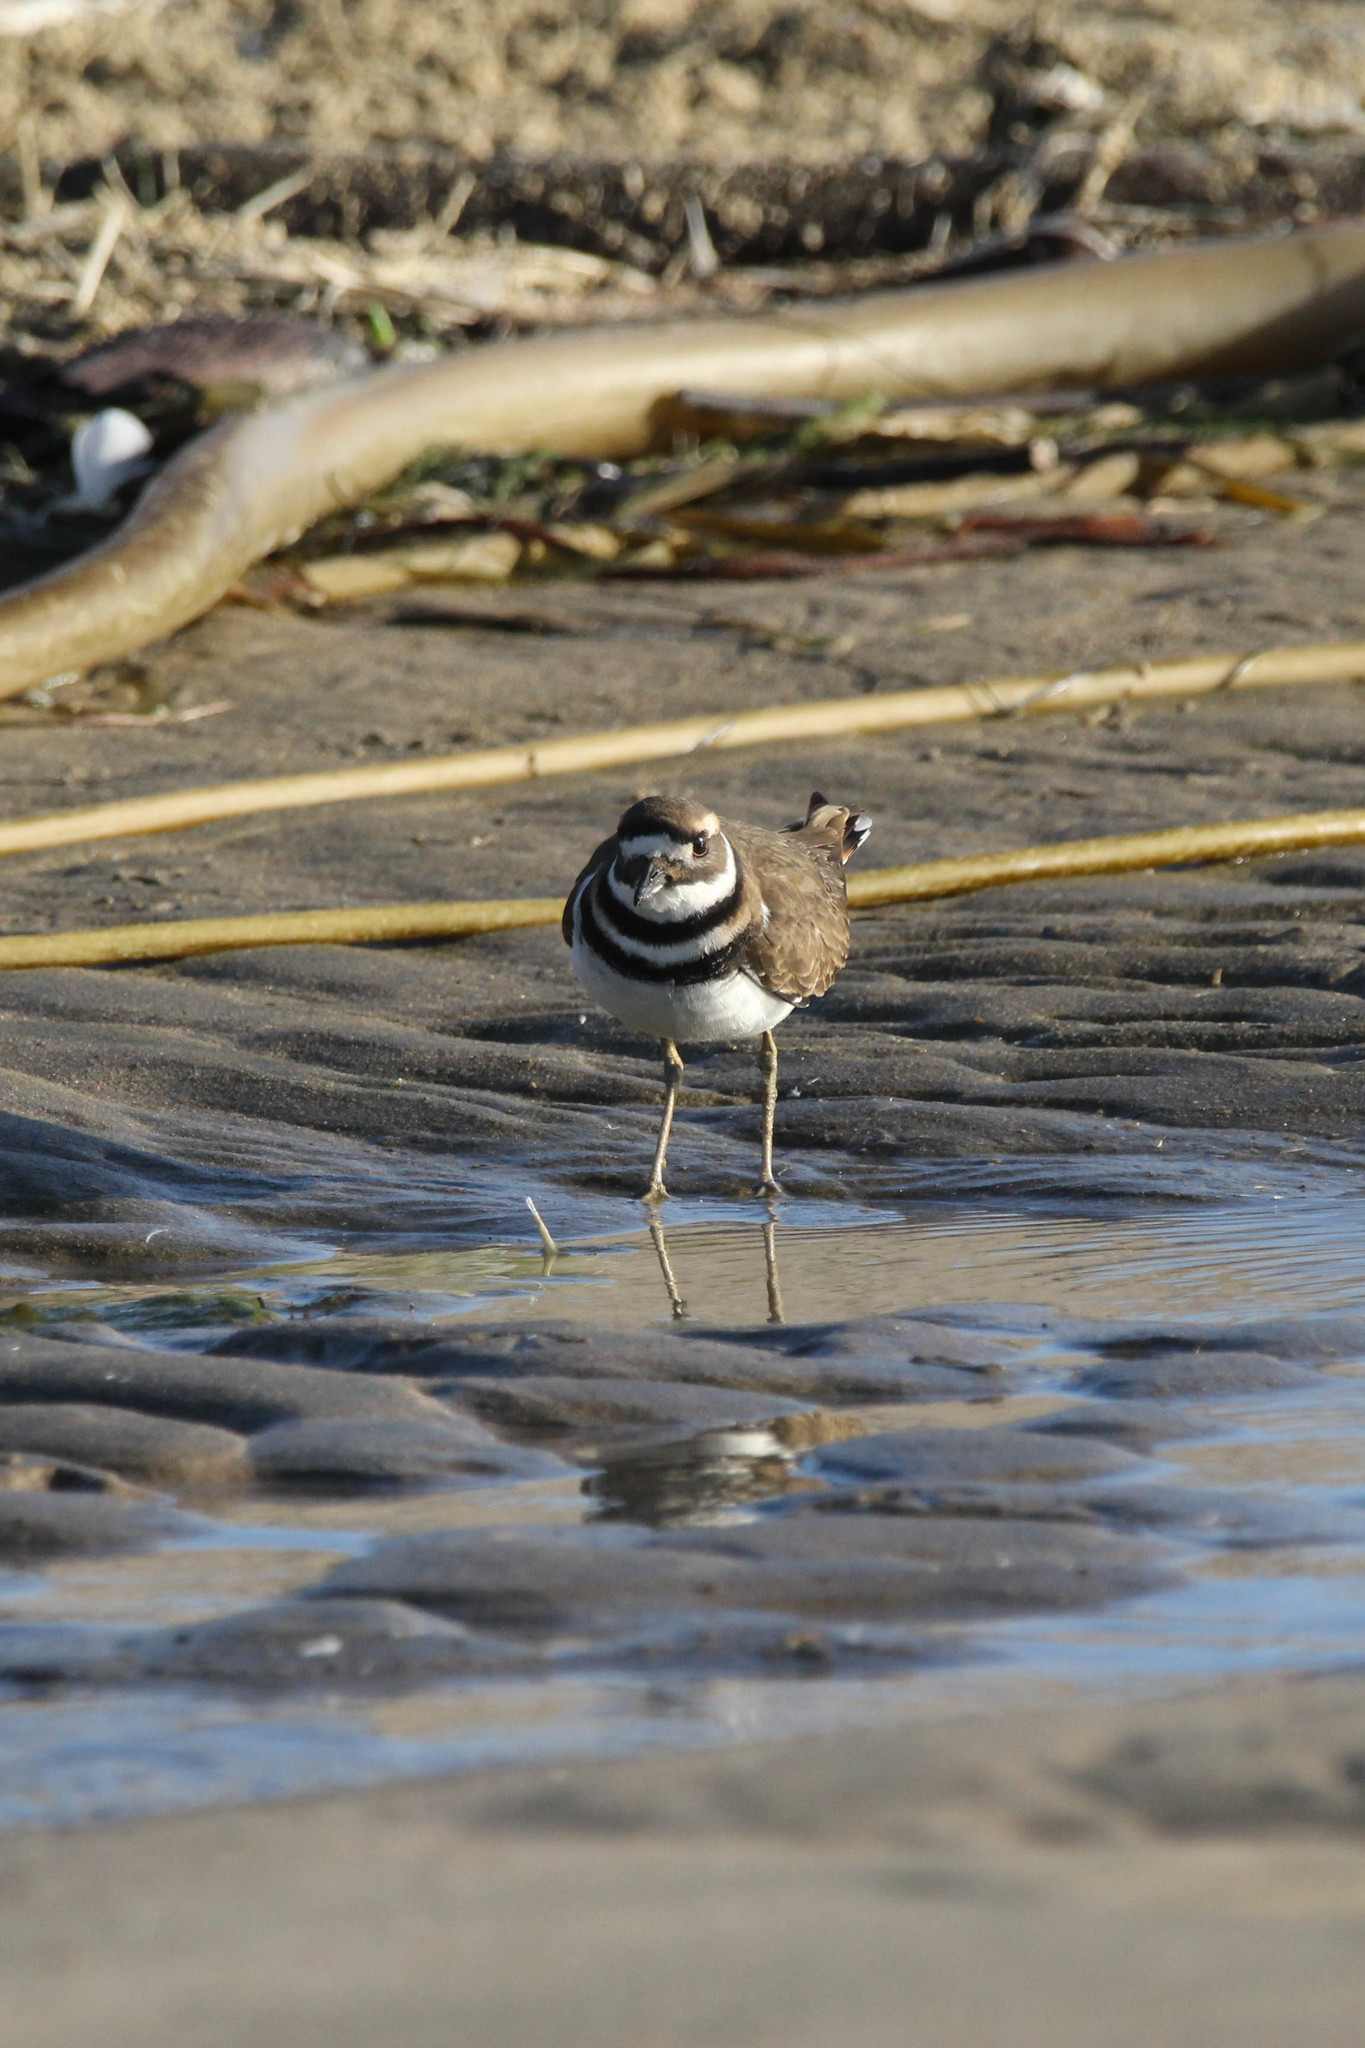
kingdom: Animalia
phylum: Chordata
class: Aves
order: Charadriiformes
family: Charadriidae
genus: Charadrius
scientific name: Charadrius vociferus
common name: Killdeer
